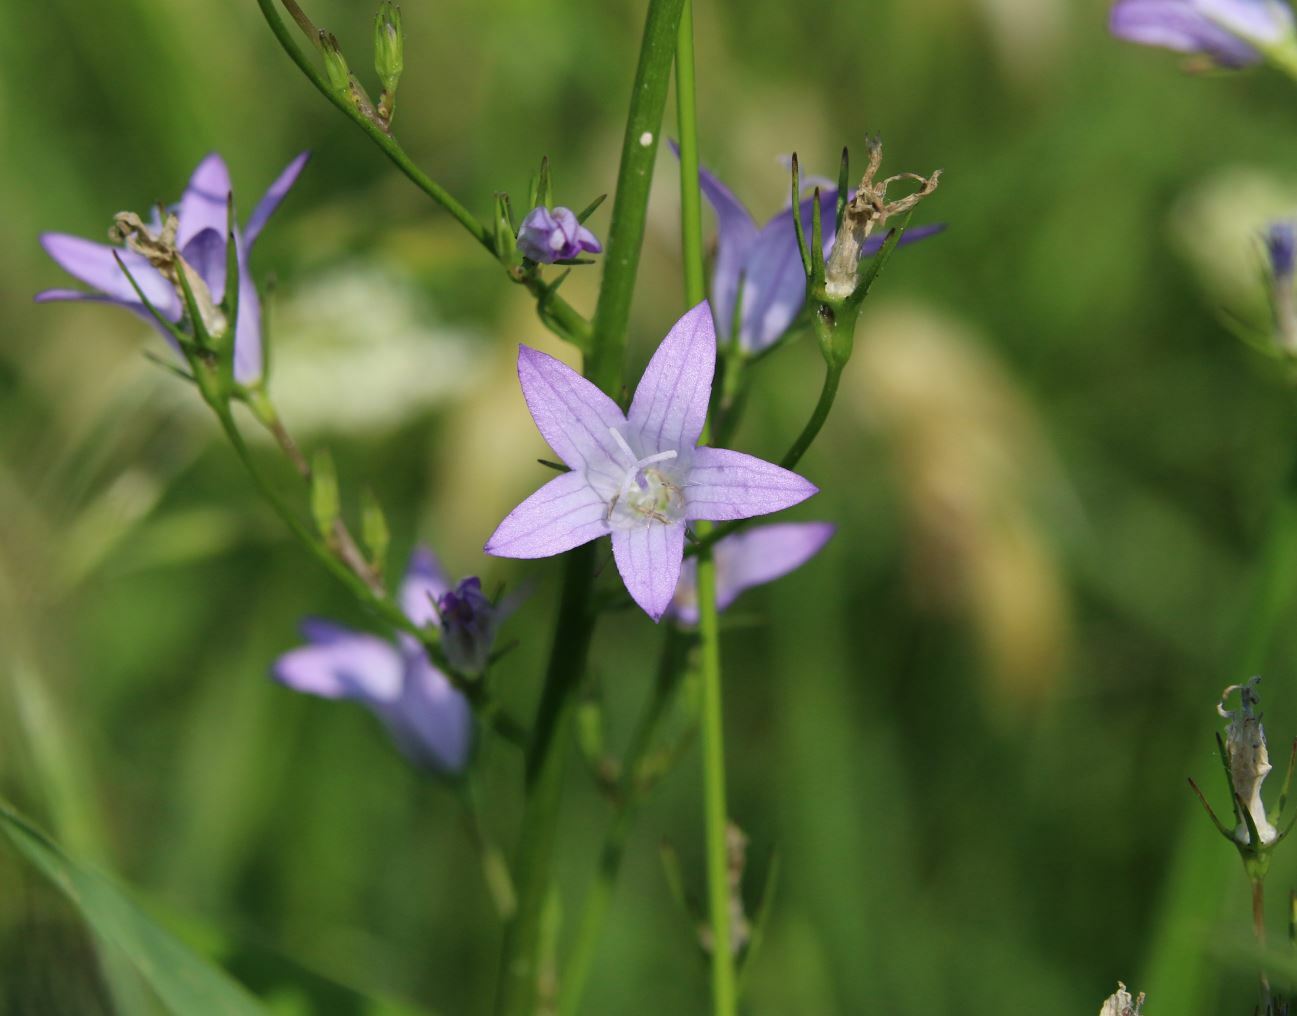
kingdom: Plantae
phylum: Tracheophyta
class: Magnoliopsida
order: Asterales
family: Campanulaceae
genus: Campanula
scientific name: Campanula rapunculus
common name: Rampion bellflower
